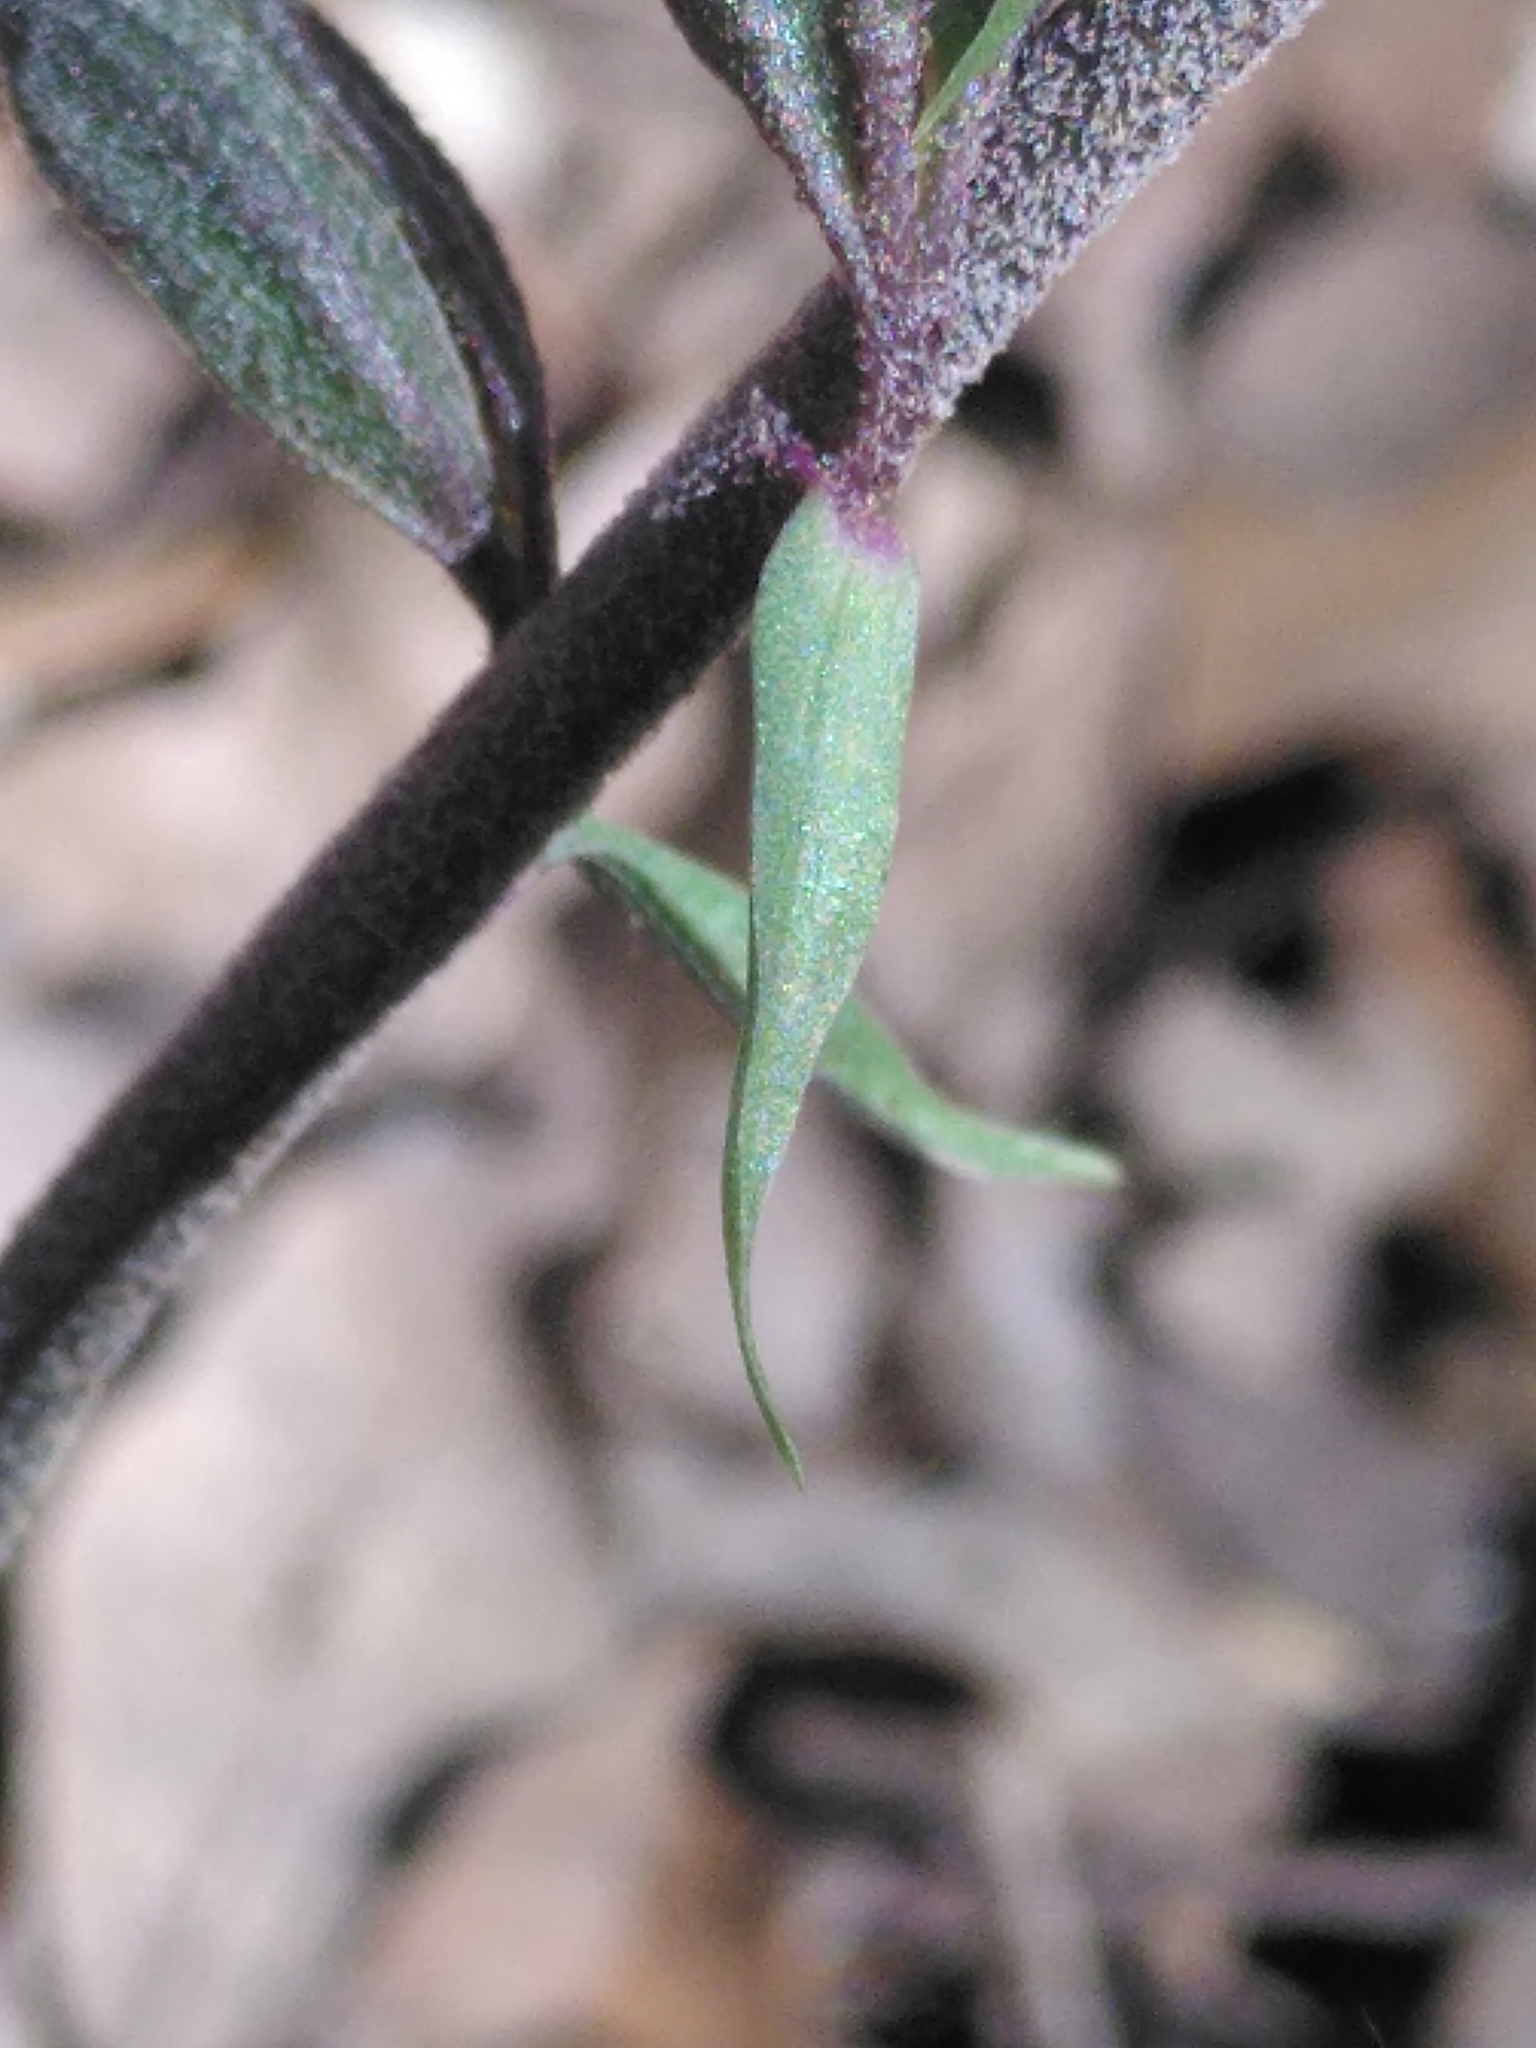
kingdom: Plantae
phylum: Tracheophyta
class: Liliopsida
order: Asparagales
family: Orchidaceae
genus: Epipactis
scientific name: Epipactis microphylla
